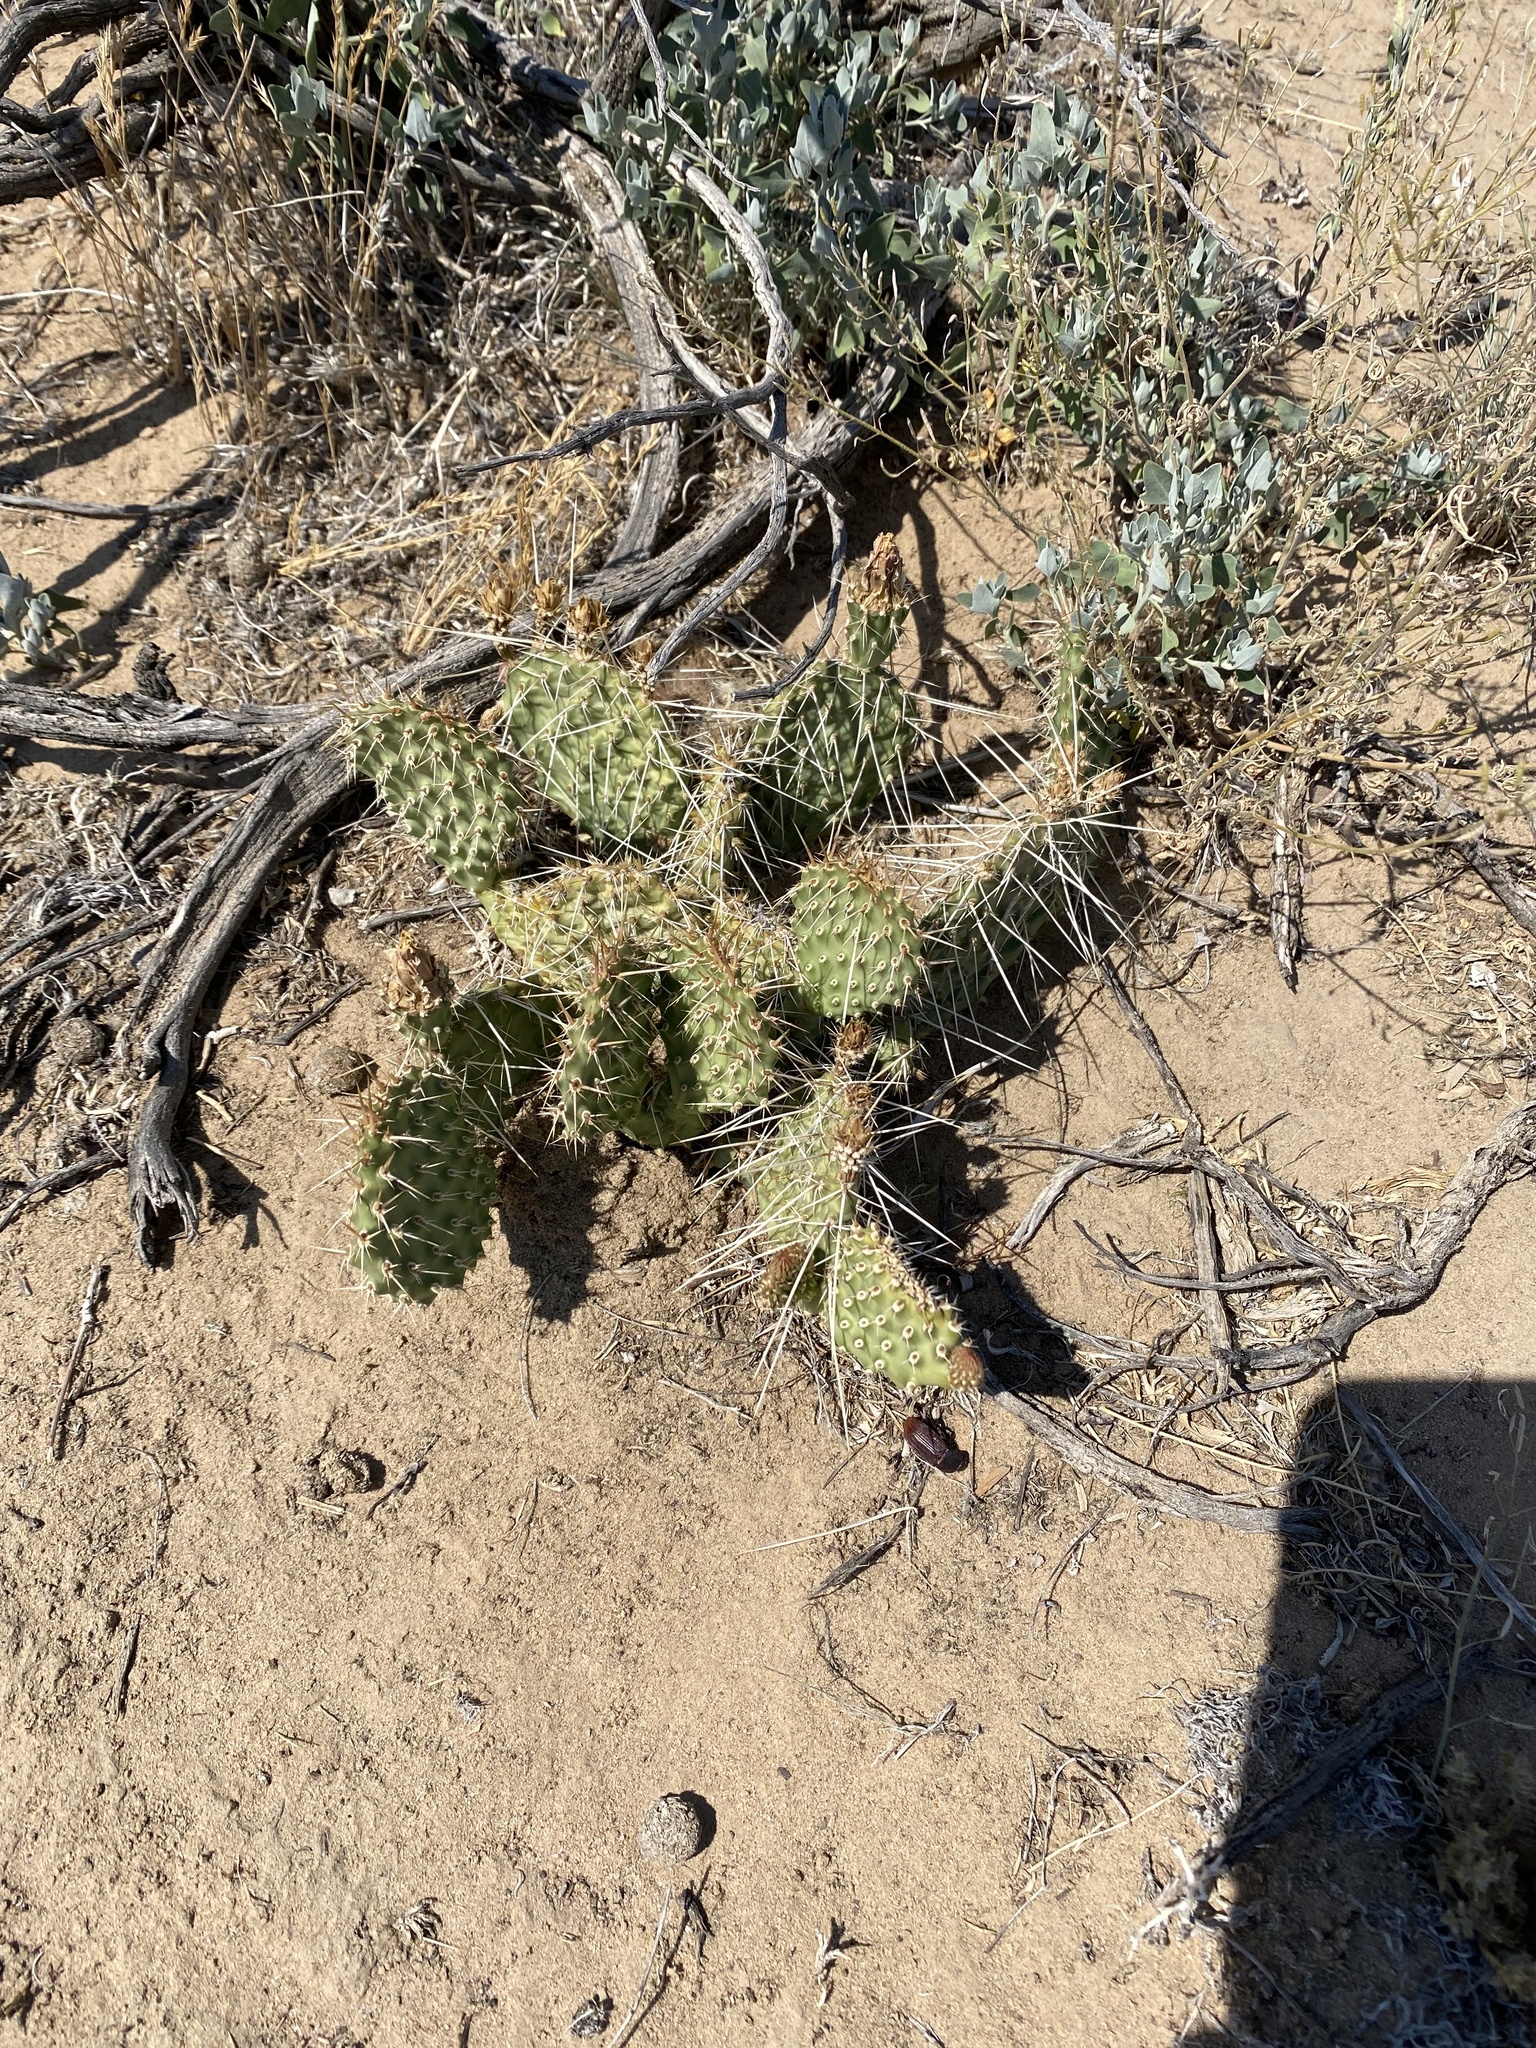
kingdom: Plantae
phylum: Tracheophyta
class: Magnoliopsida
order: Caryophyllales
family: Cactaceae
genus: Opuntia
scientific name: Opuntia polyacantha
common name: Plains prickly-pear
